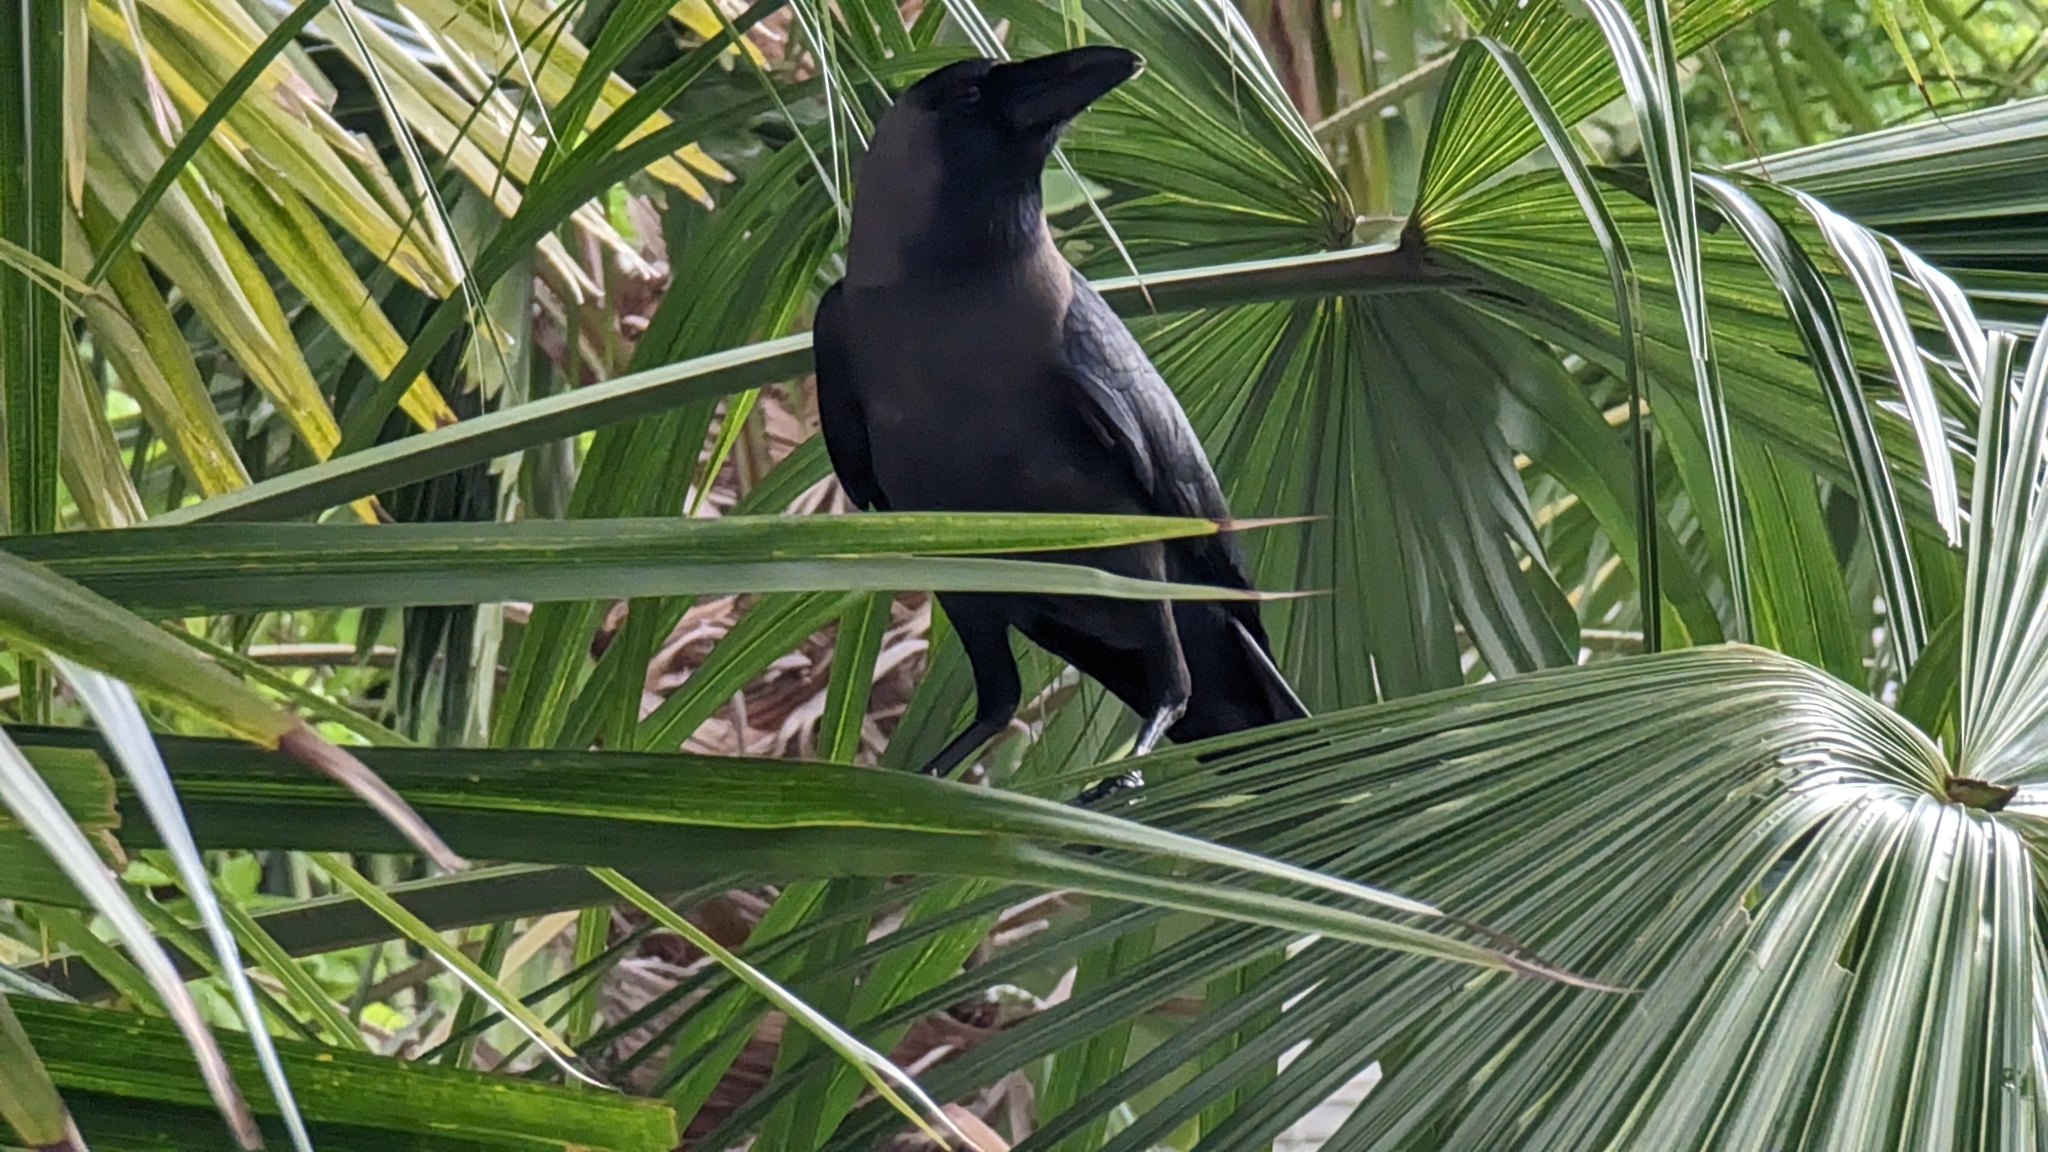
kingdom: Animalia
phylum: Chordata
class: Aves
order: Passeriformes
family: Corvidae
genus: Corvus
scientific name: Corvus splendens
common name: House crow
